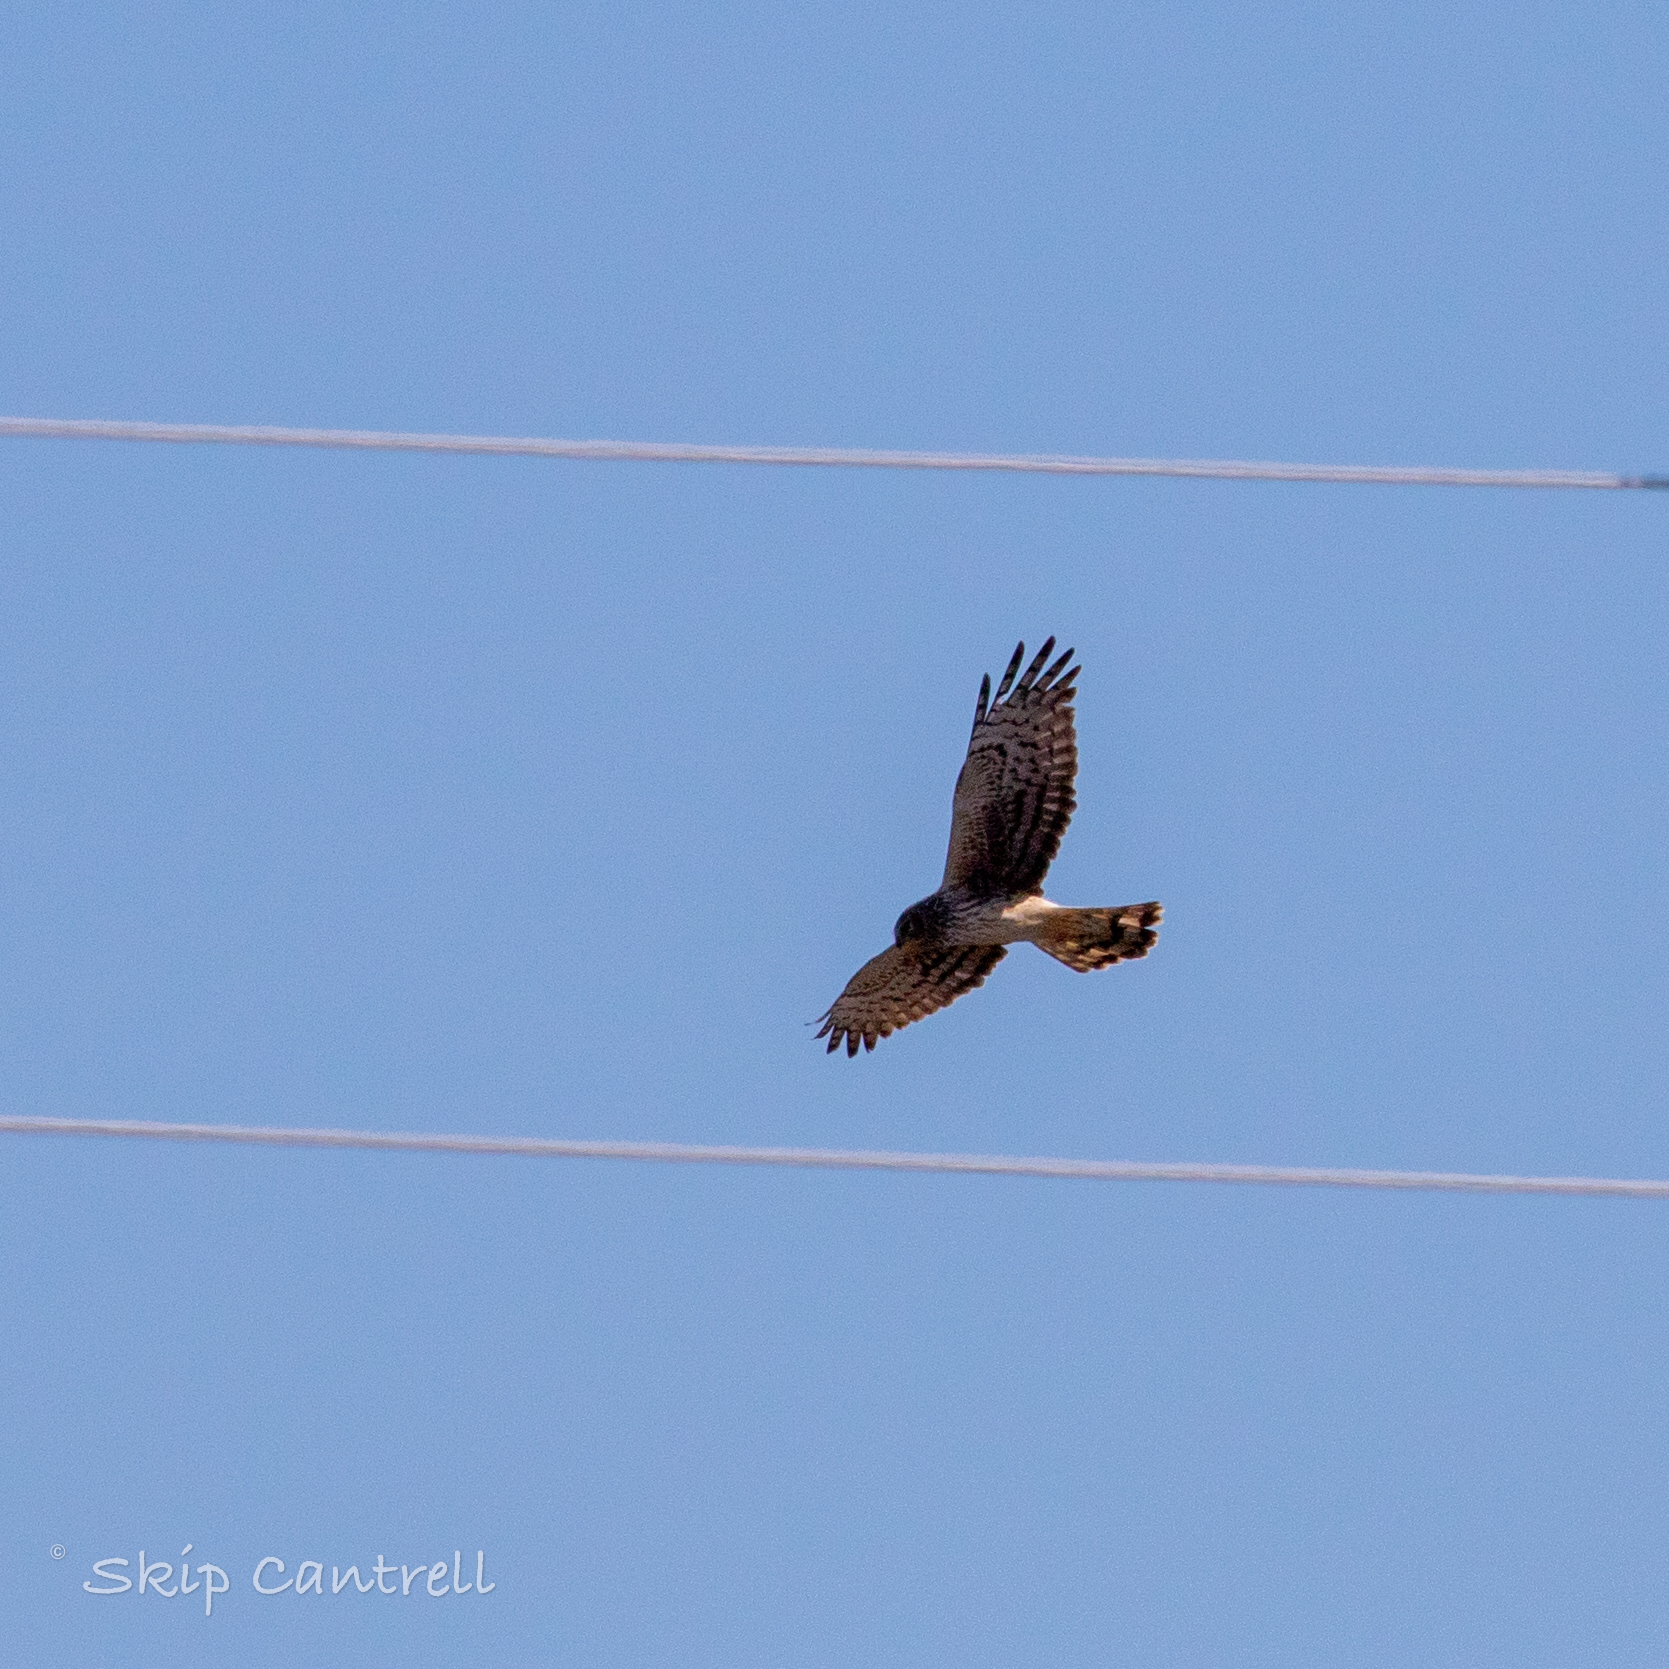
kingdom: Animalia
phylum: Chordata
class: Aves
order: Accipitriformes
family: Accipitridae
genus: Circus
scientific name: Circus cyaneus
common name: Hen harrier
